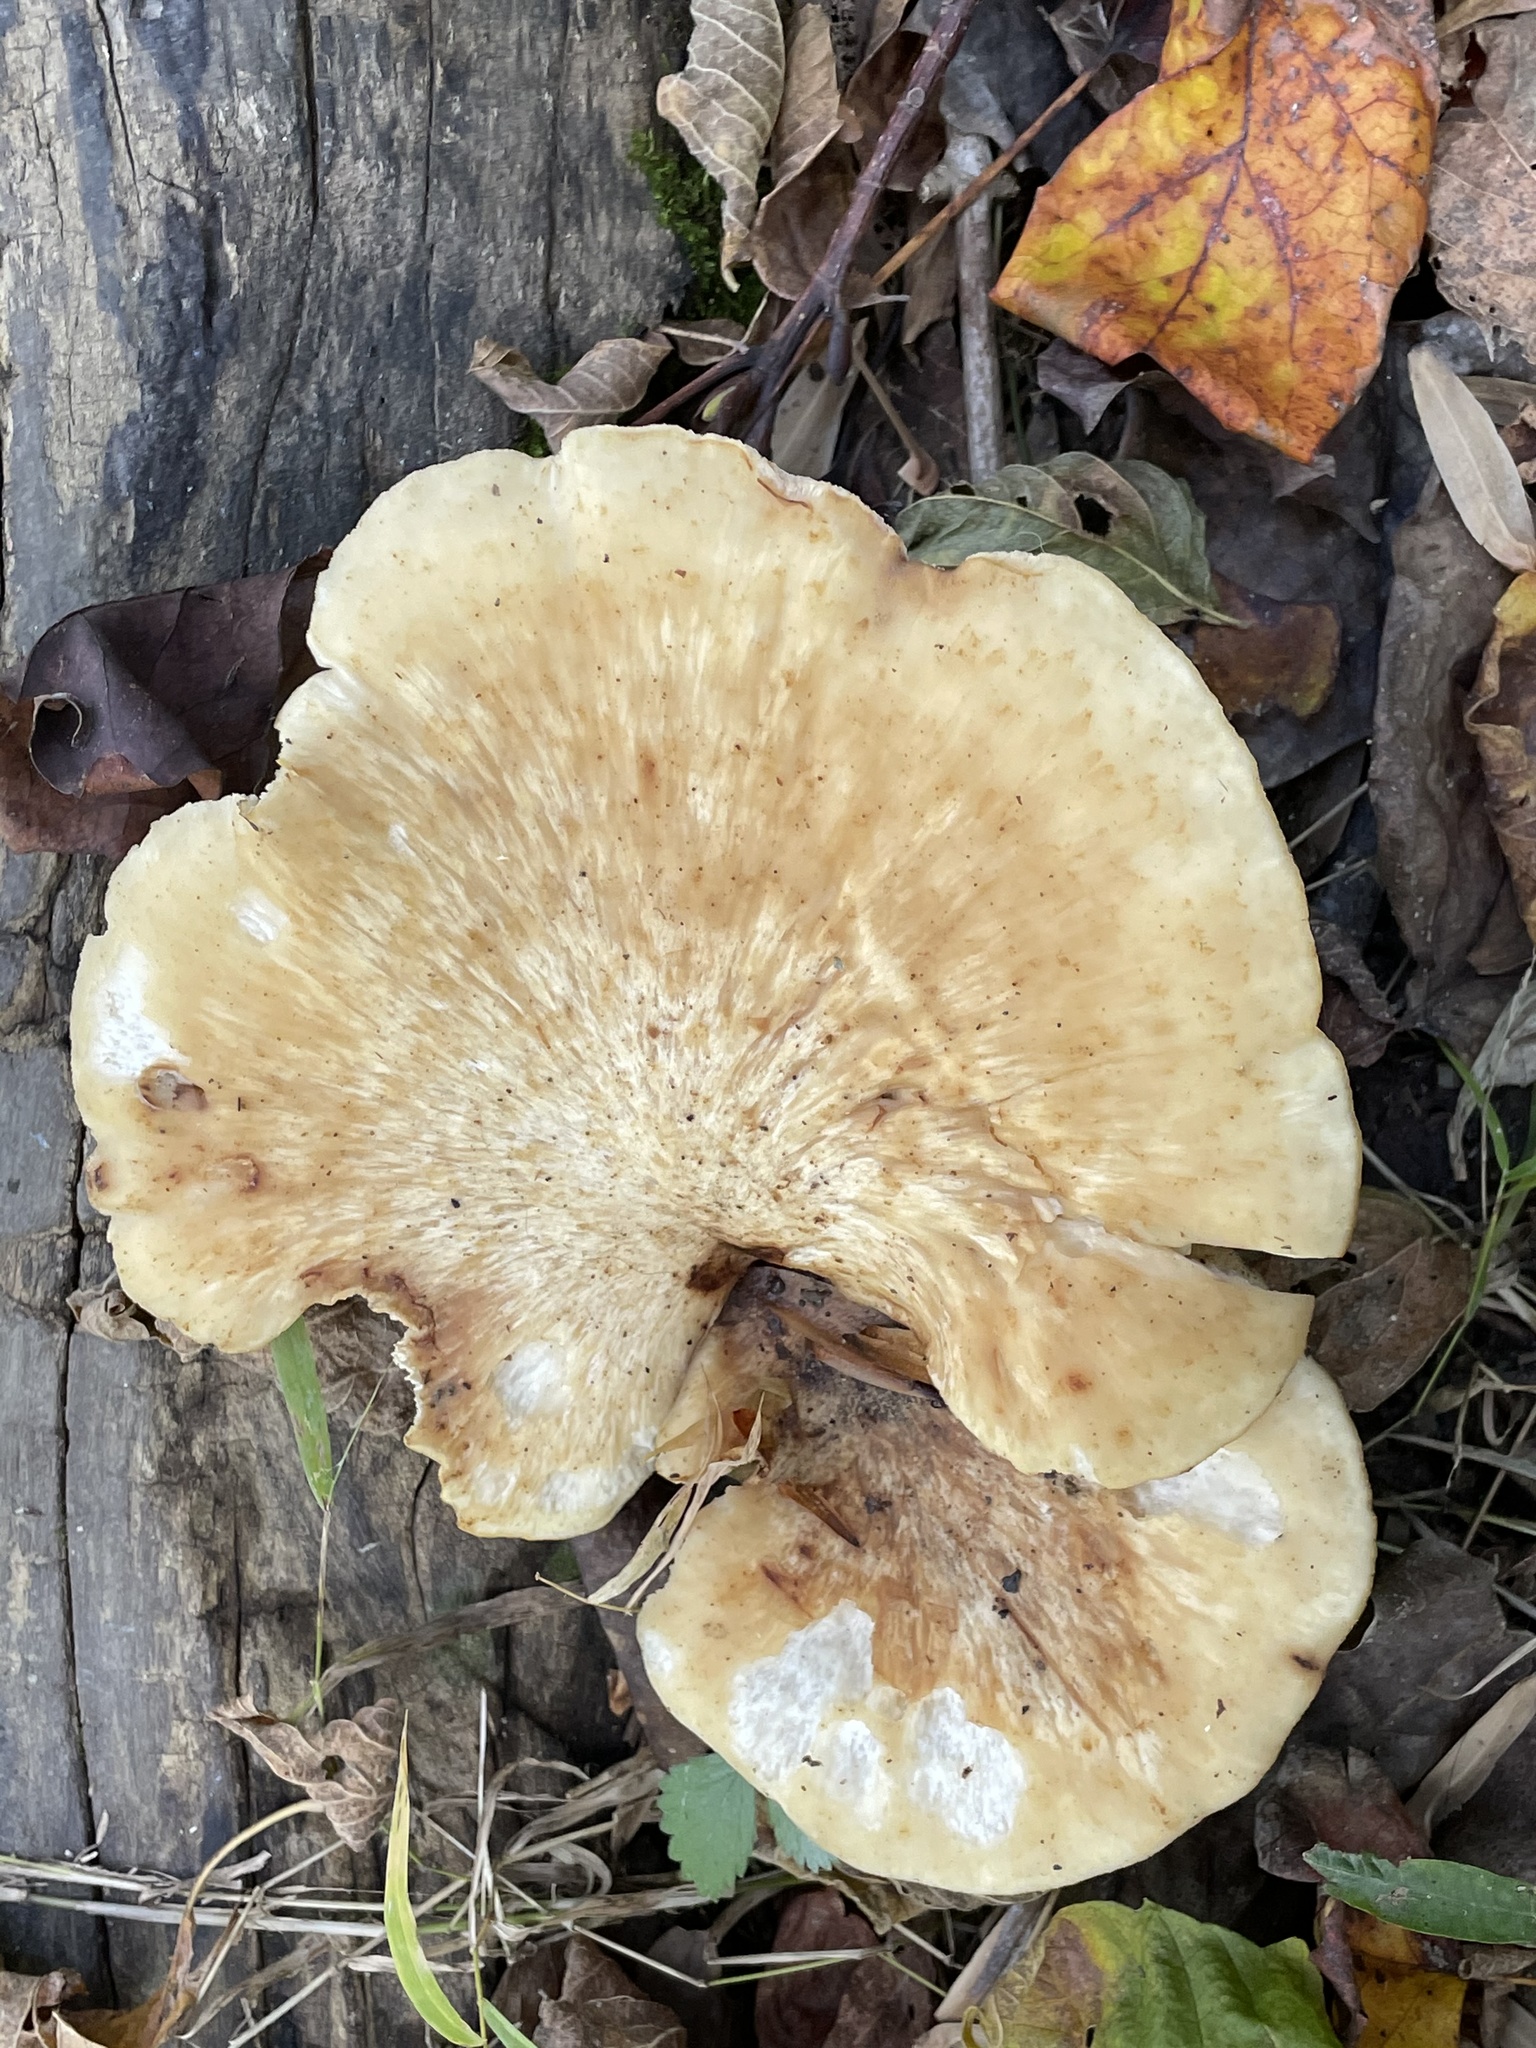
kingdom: Fungi
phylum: Basidiomycota
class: Agaricomycetes
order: Polyporales
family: Polyporaceae
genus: Cerioporus
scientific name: Cerioporus squamosus
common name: Dryad's saddle
